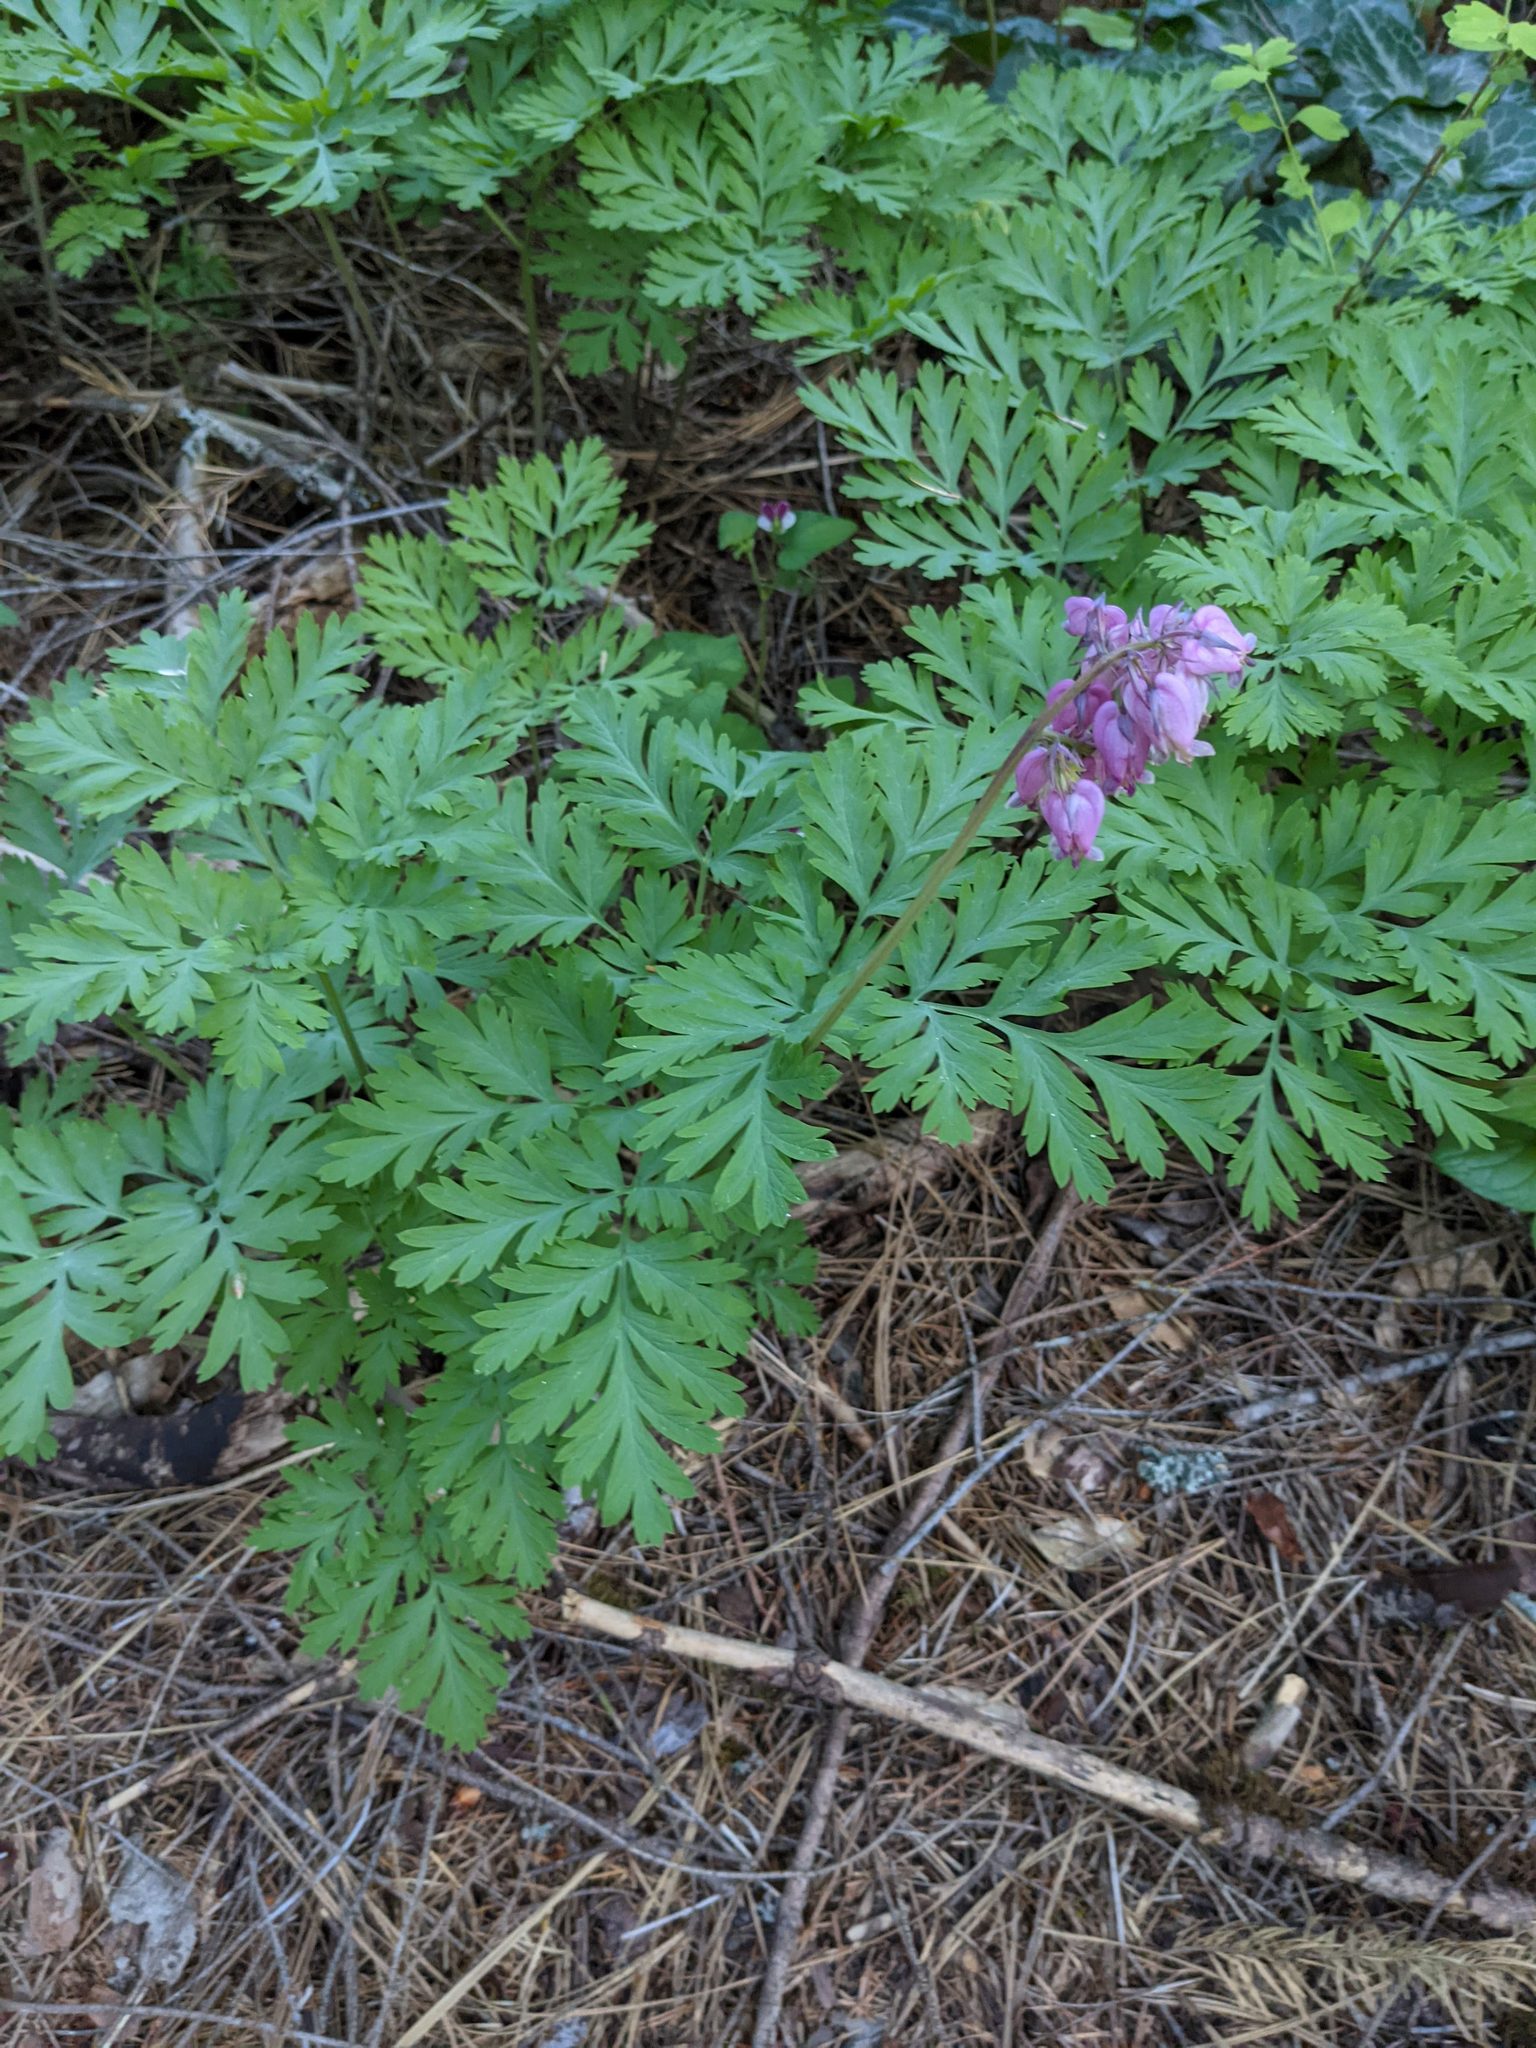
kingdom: Plantae
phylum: Tracheophyta
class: Magnoliopsida
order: Ranunculales
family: Papaveraceae
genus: Dicentra
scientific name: Dicentra formosa
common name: Bleeding-heart
